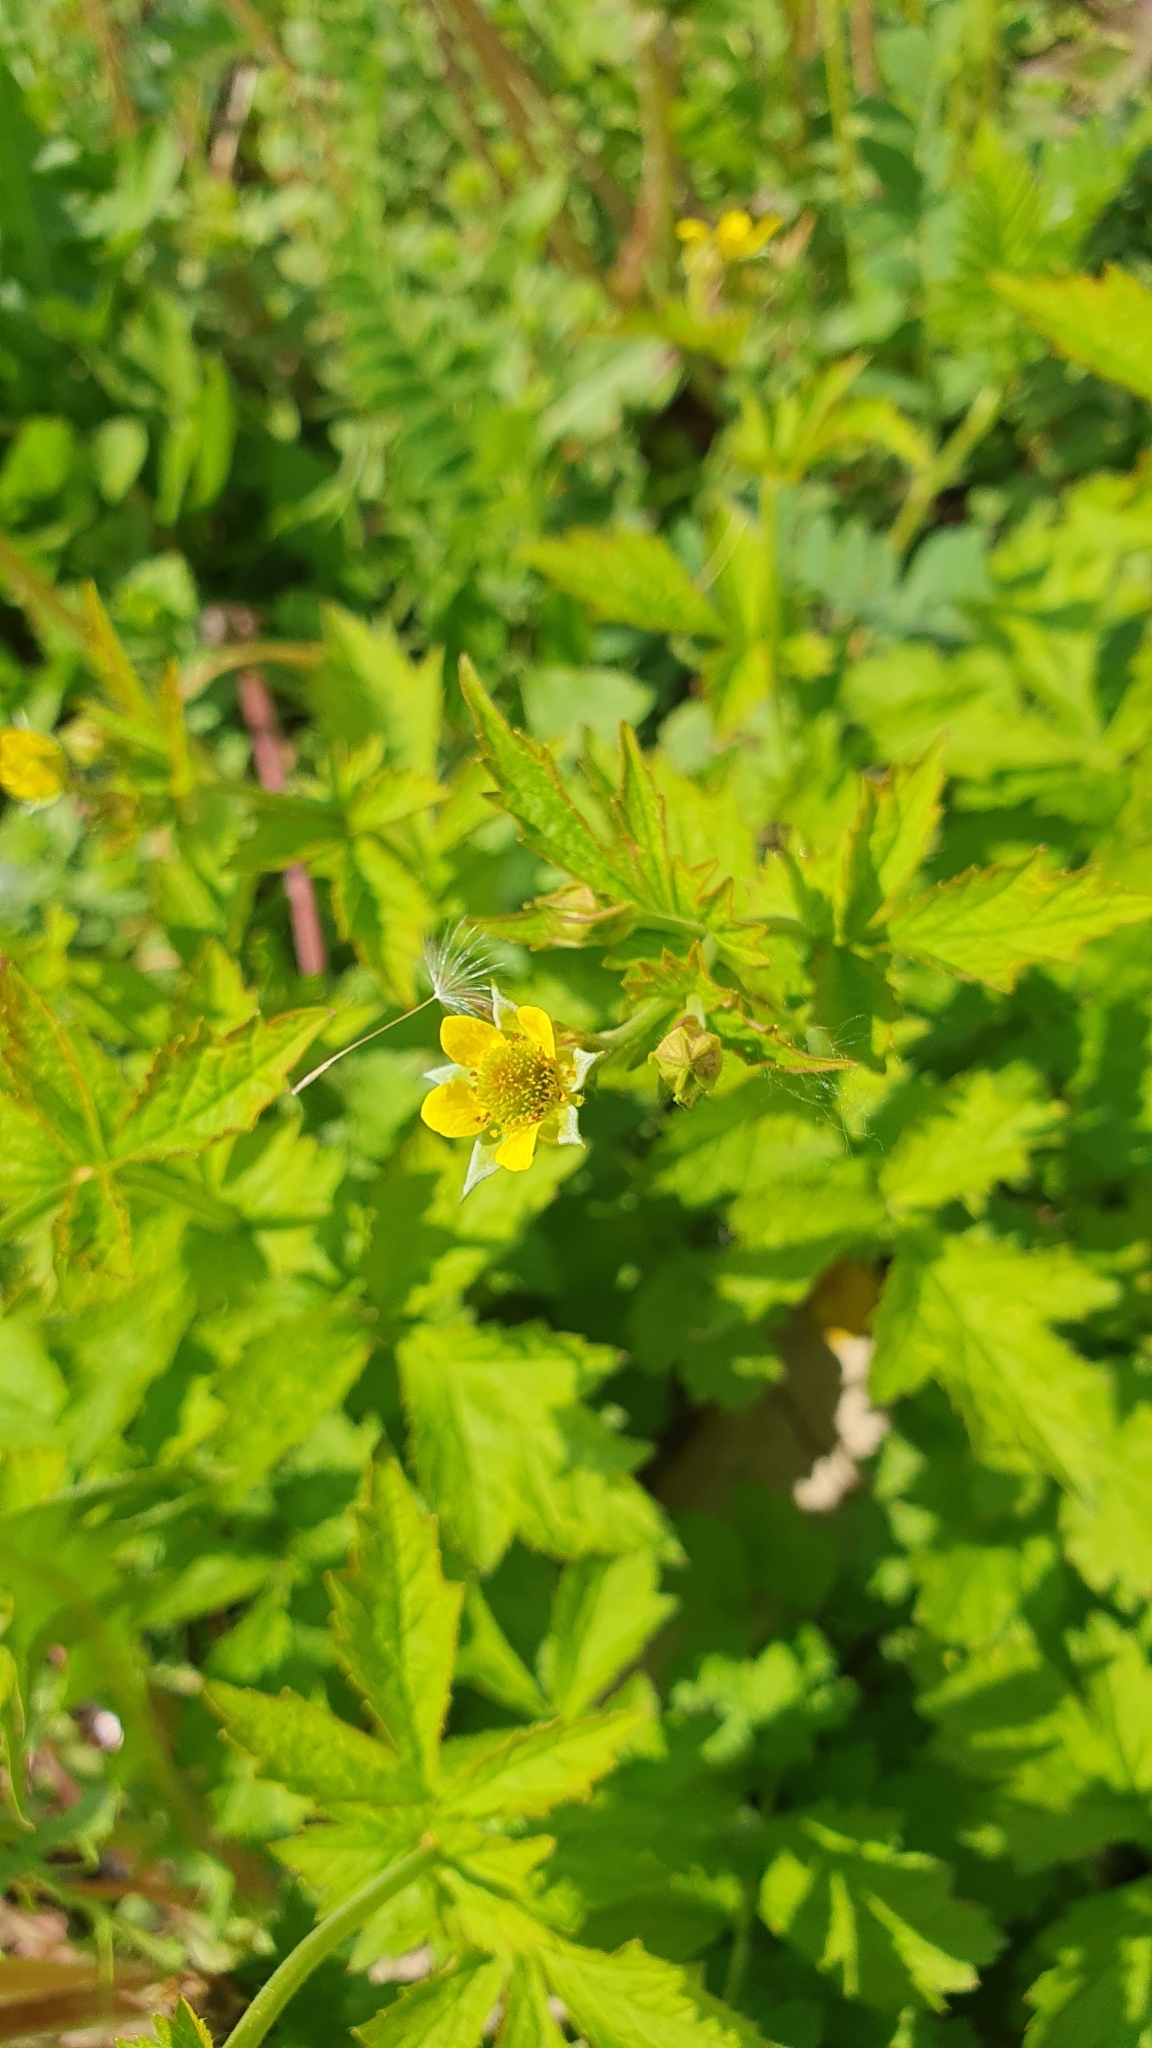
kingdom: Plantae
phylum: Tracheophyta
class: Magnoliopsida
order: Rosales
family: Rosaceae
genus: Geum
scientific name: Geum urbanum
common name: Wood avens
